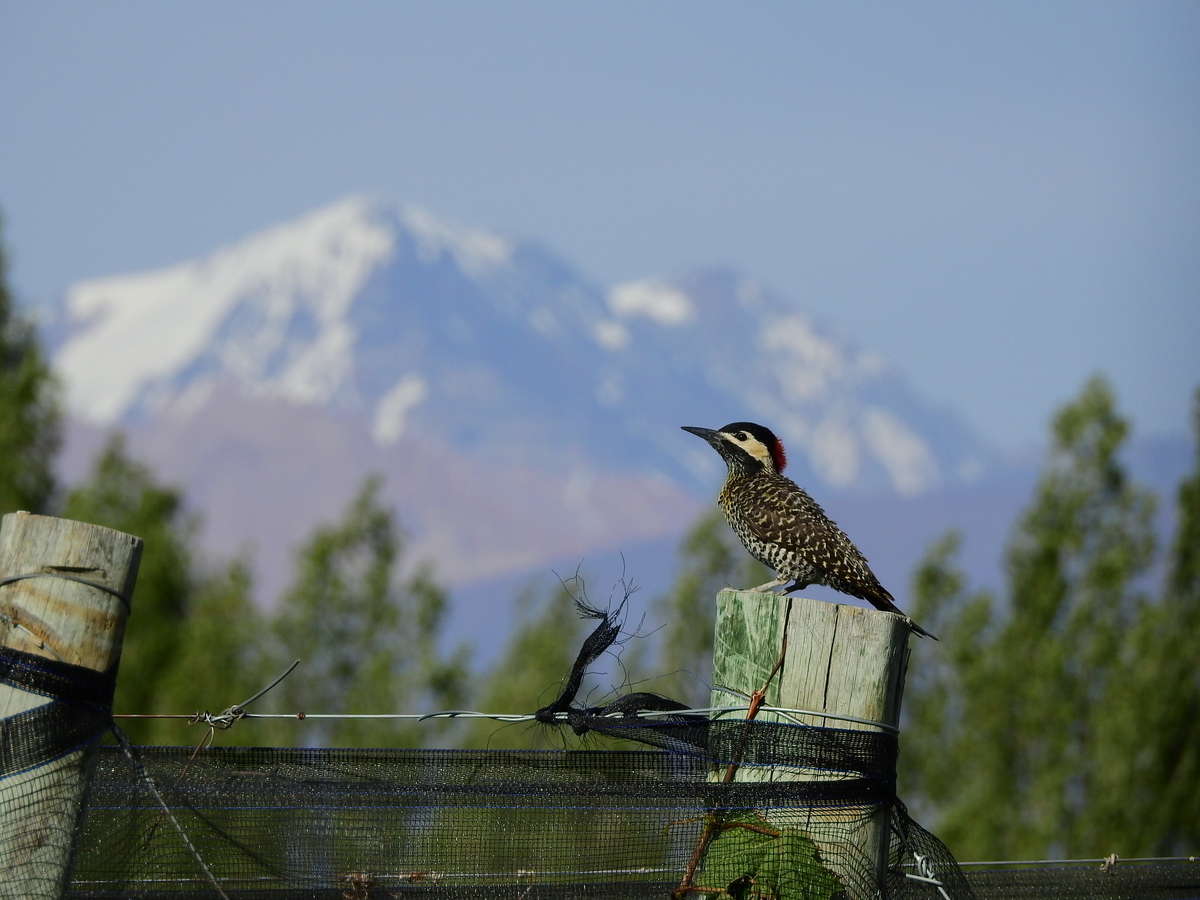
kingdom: Animalia
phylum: Chordata
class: Aves
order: Piciformes
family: Picidae
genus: Colaptes
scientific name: Colaptes melanochloros
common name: Green-barred woodpecker
